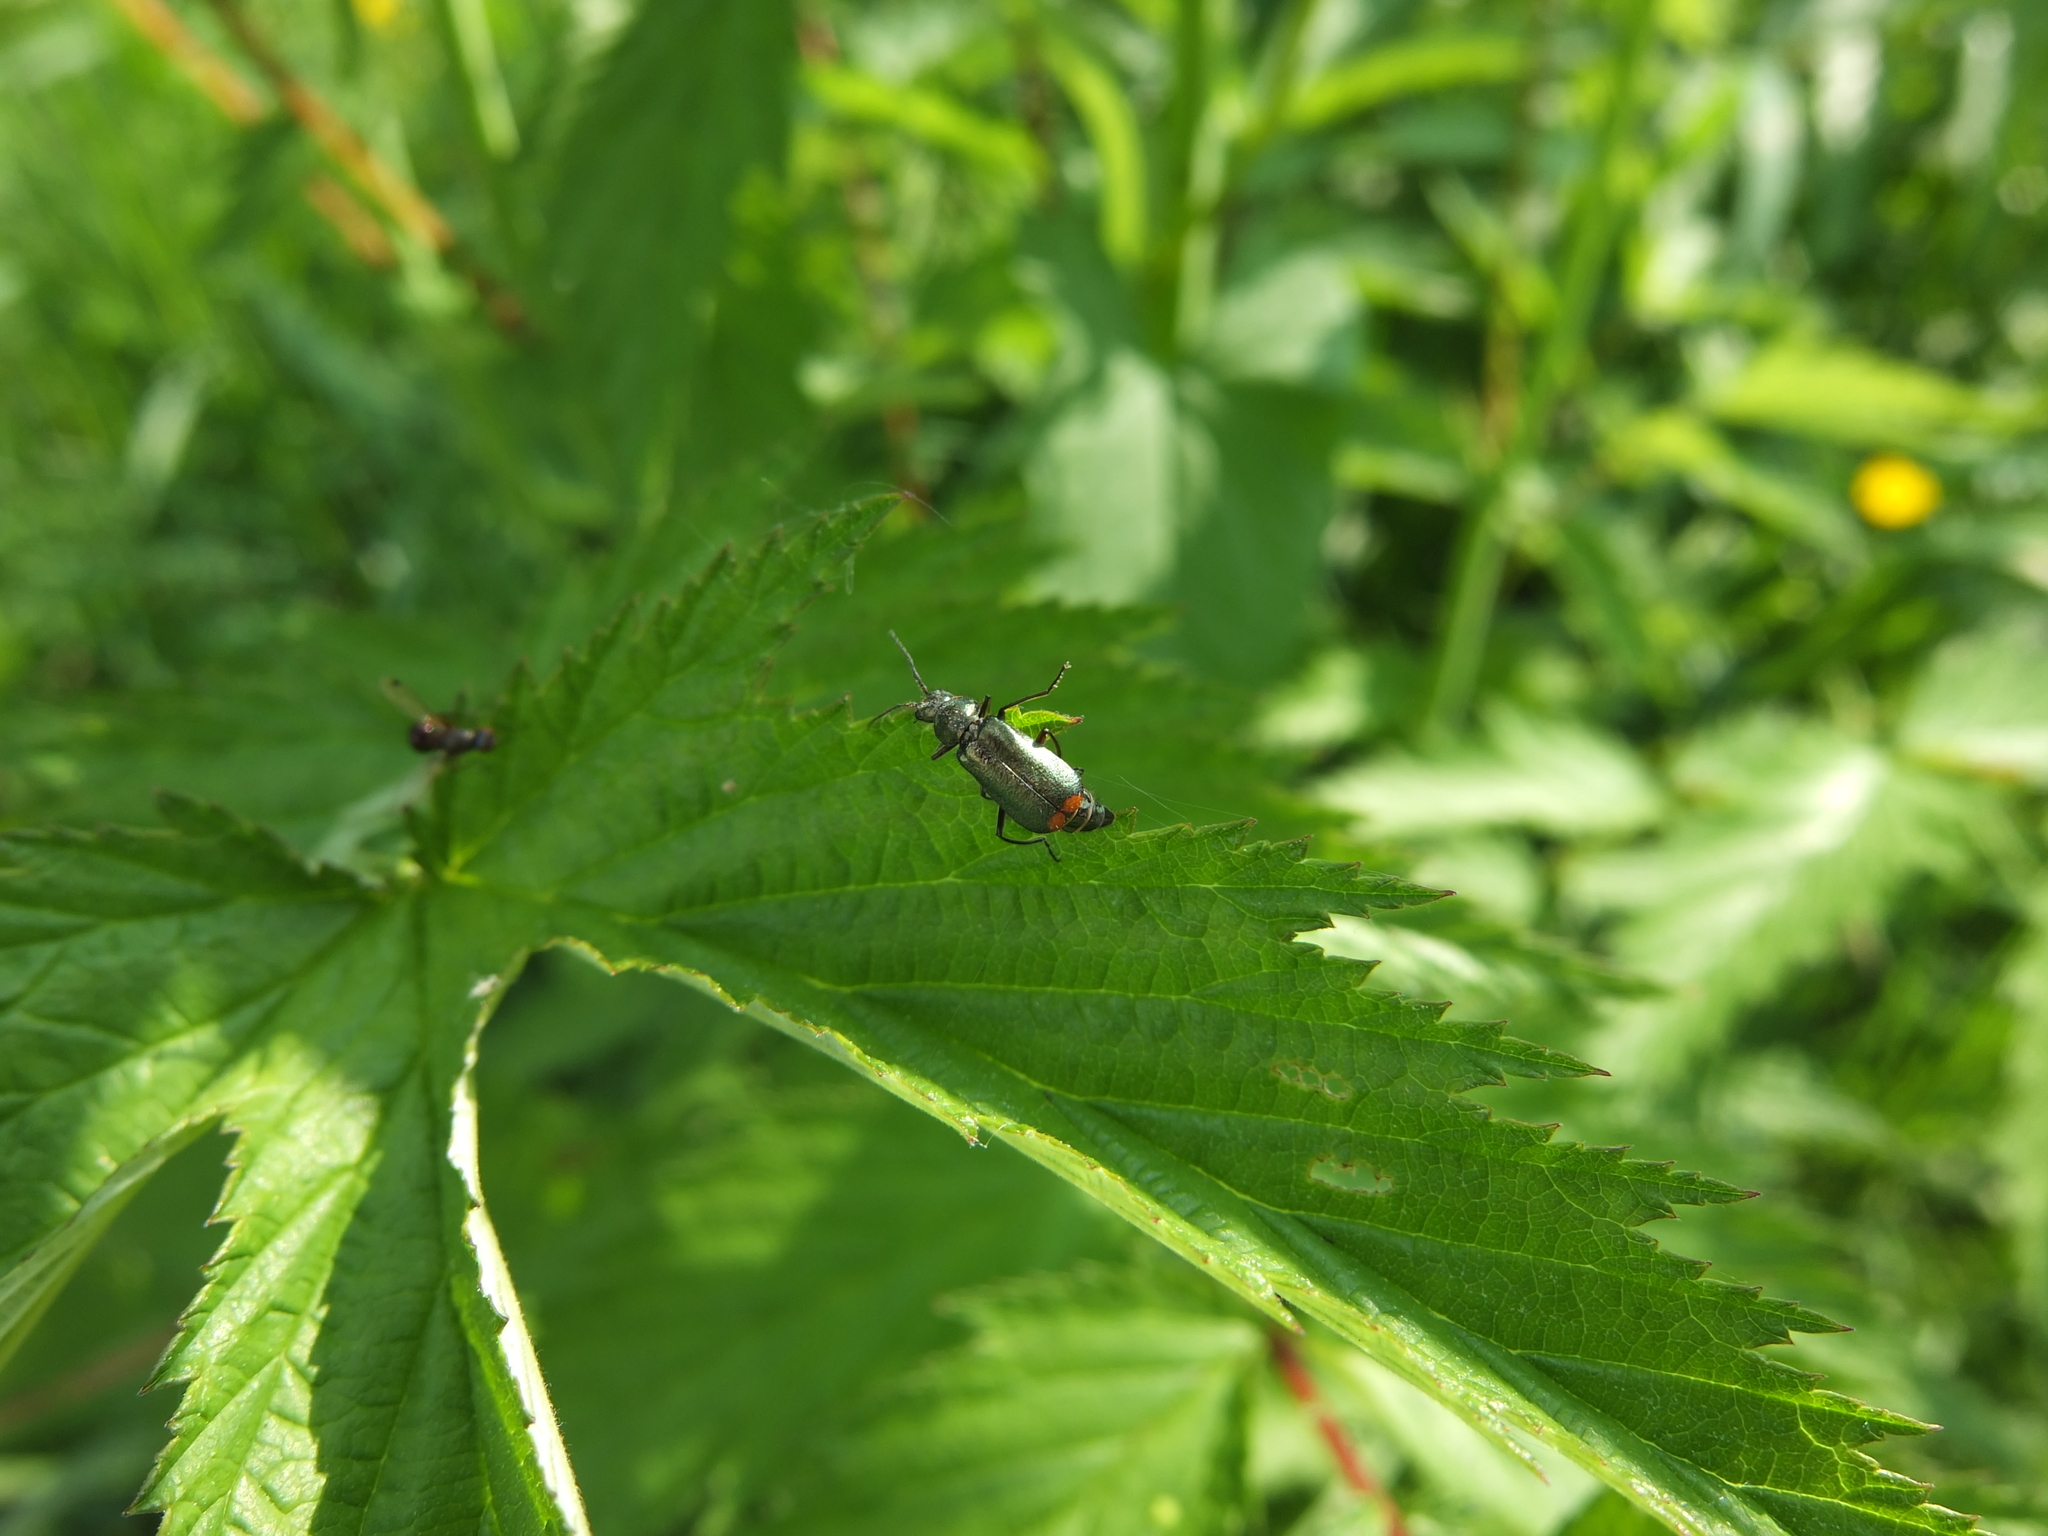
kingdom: Animalia
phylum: Arthropoda
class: Insecta
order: Coleoptera
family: Melyridae
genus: Malachius
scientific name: Malachius bipustulatus
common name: Malachite beetle
